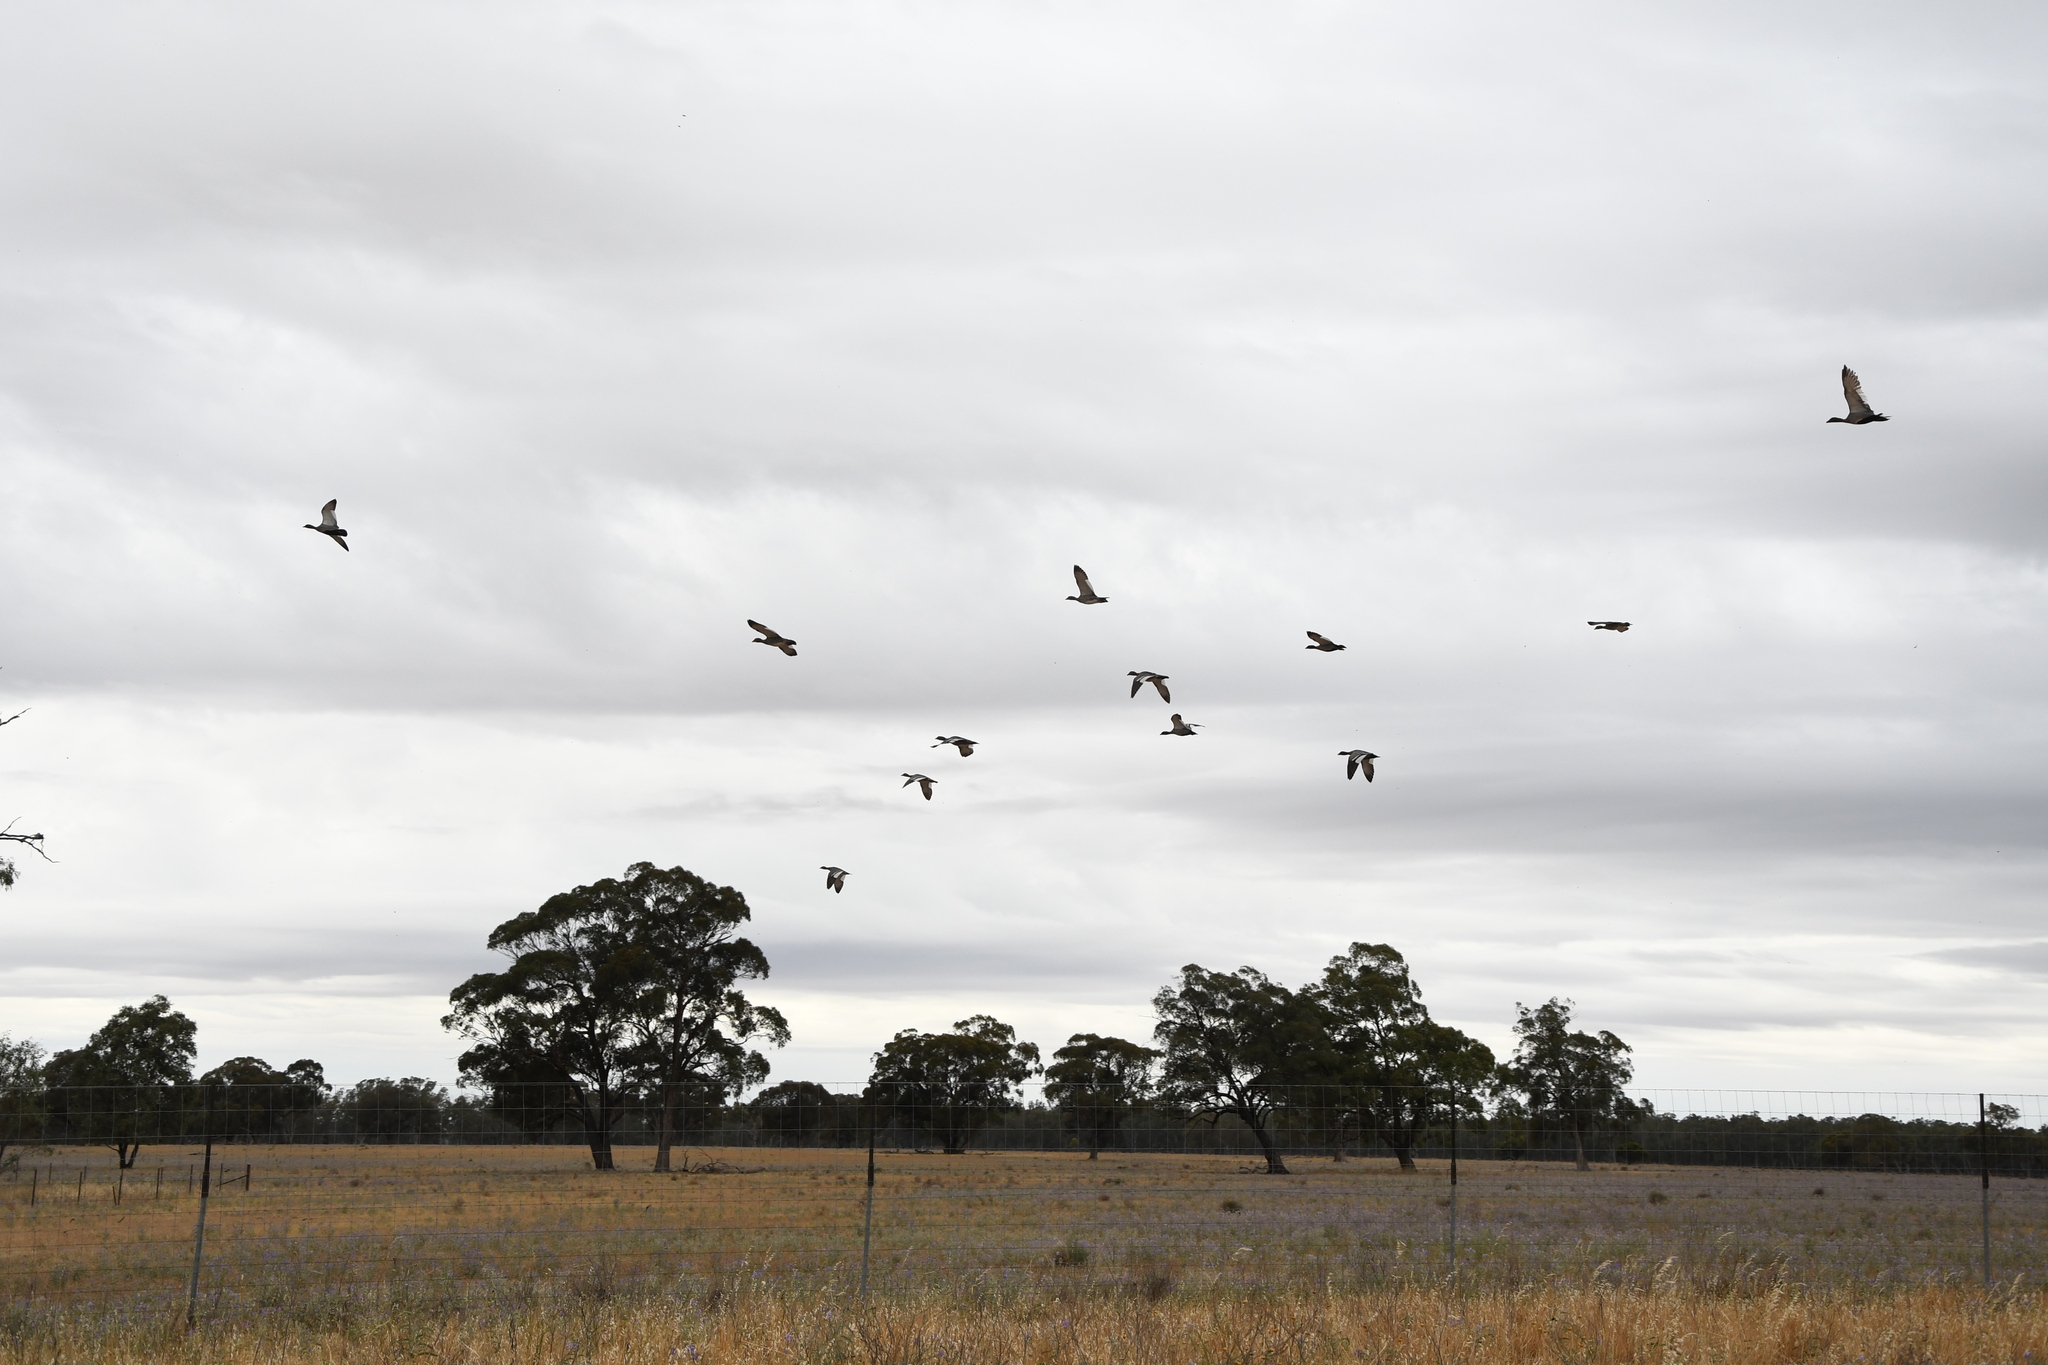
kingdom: Animalia
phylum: Chordata
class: Aves
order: Anseriformes
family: Anatidae
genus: Chenonetta
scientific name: Chenonetta jubata
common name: Maned duck
